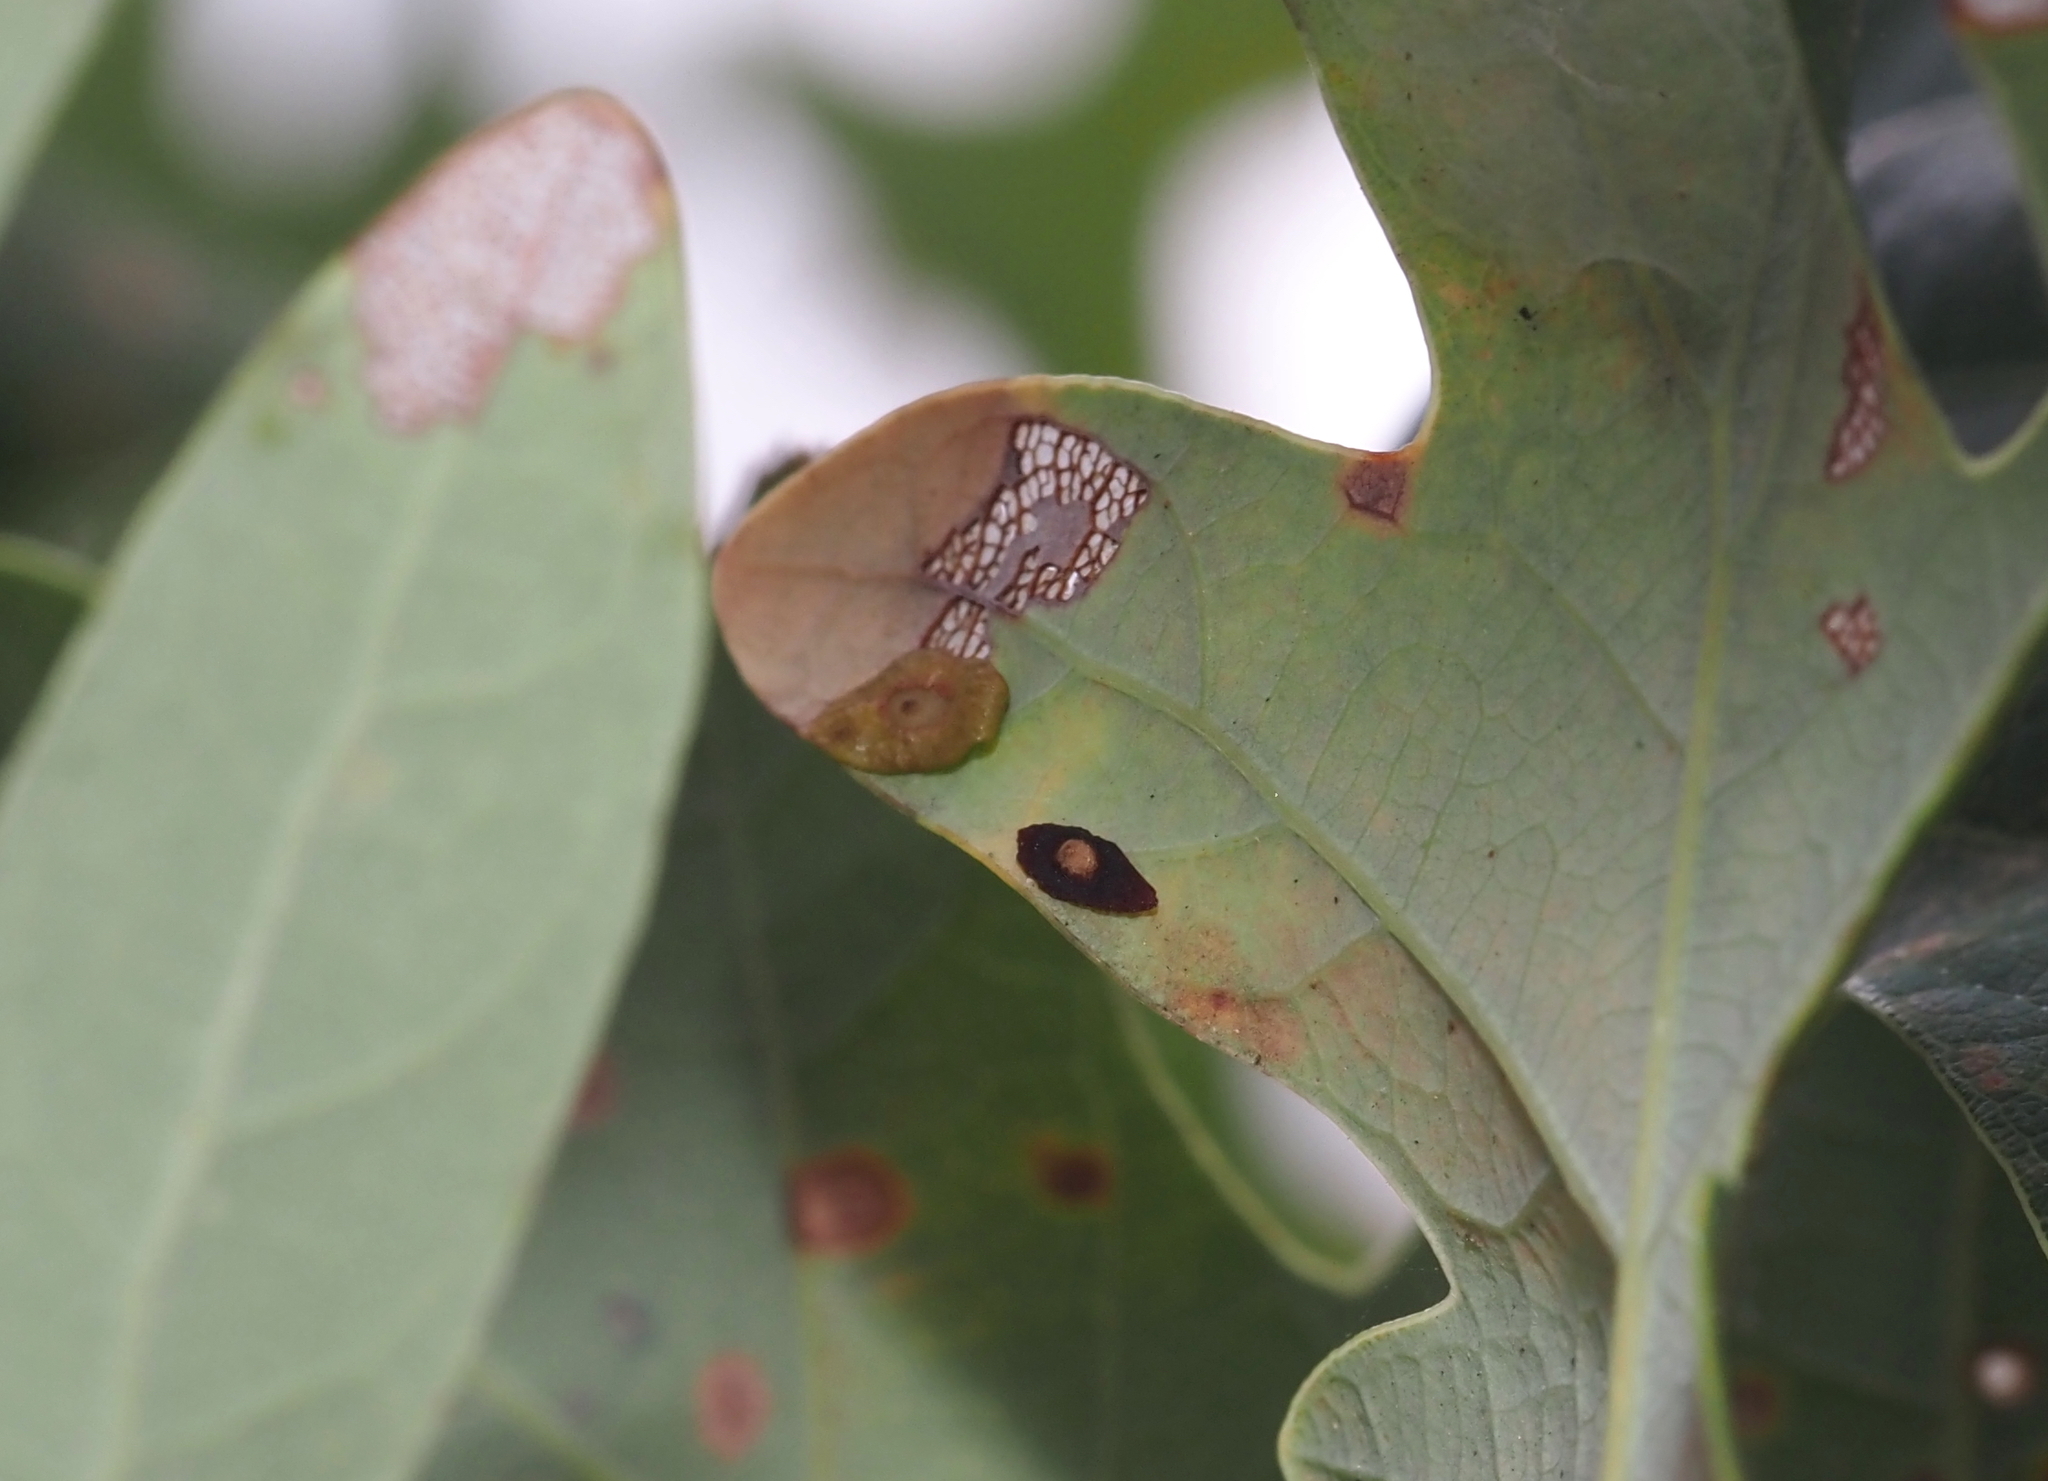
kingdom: Animalia
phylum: Arthropoda
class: Insecta
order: Hymenoptera
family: Cynipidae
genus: Phylloteras
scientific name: Phylloteras
